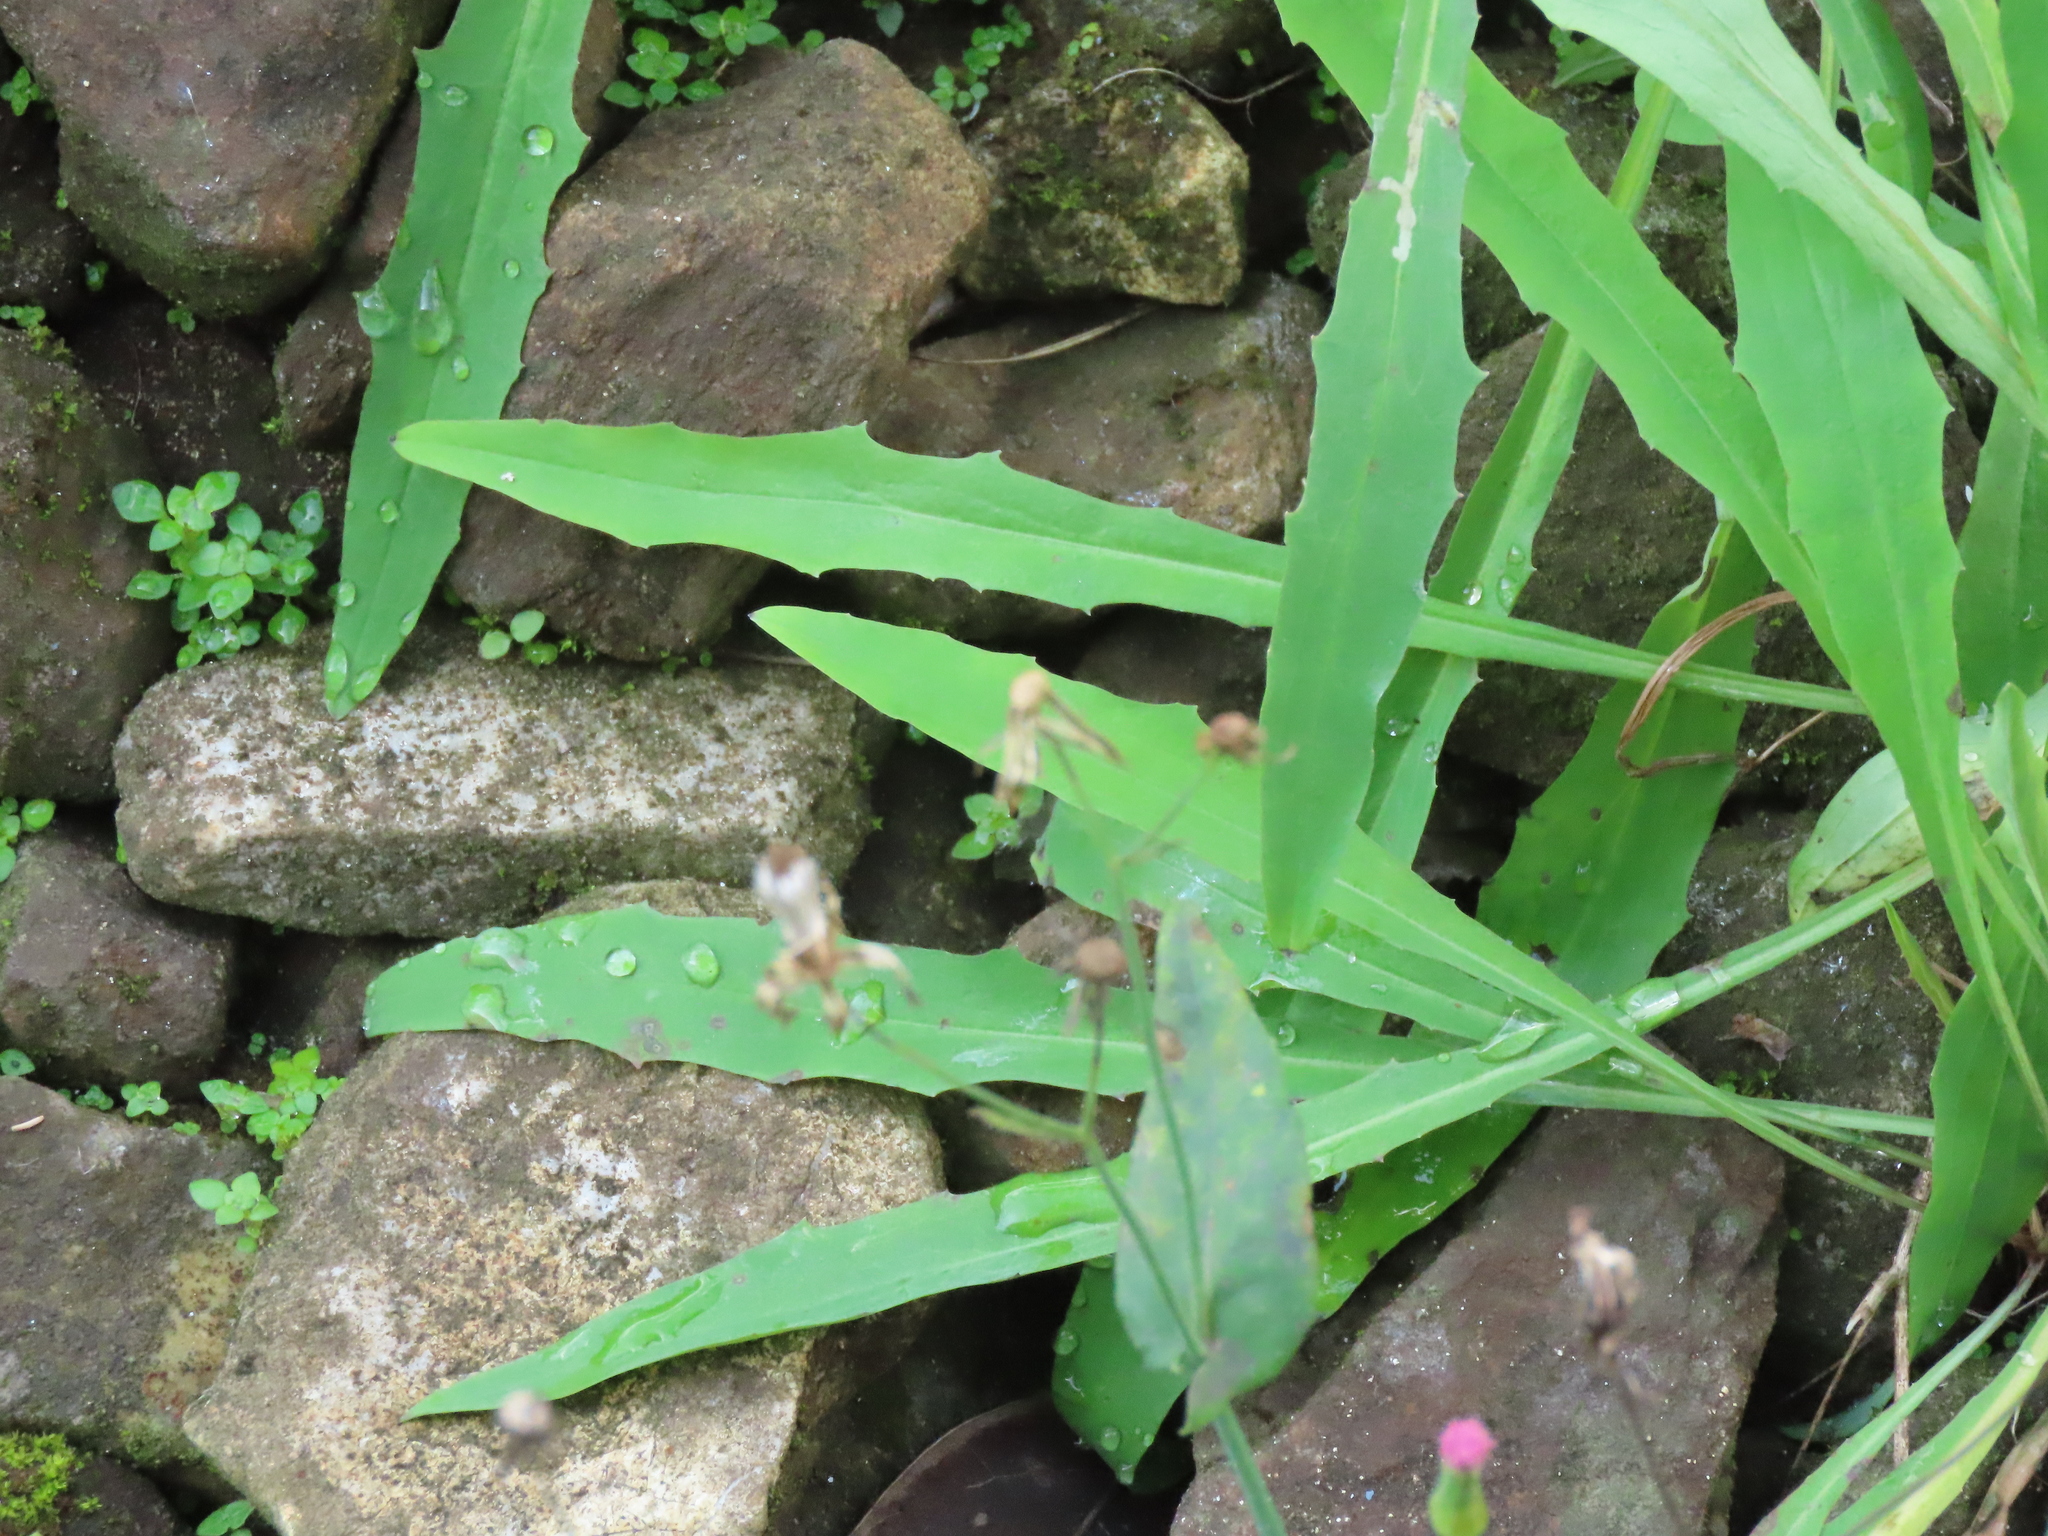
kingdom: Plantae
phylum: Tracheophyta
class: Magnoliopsida
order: Asterales
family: Asteraceae
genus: Ixeris
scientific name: Ixeris chinensis
